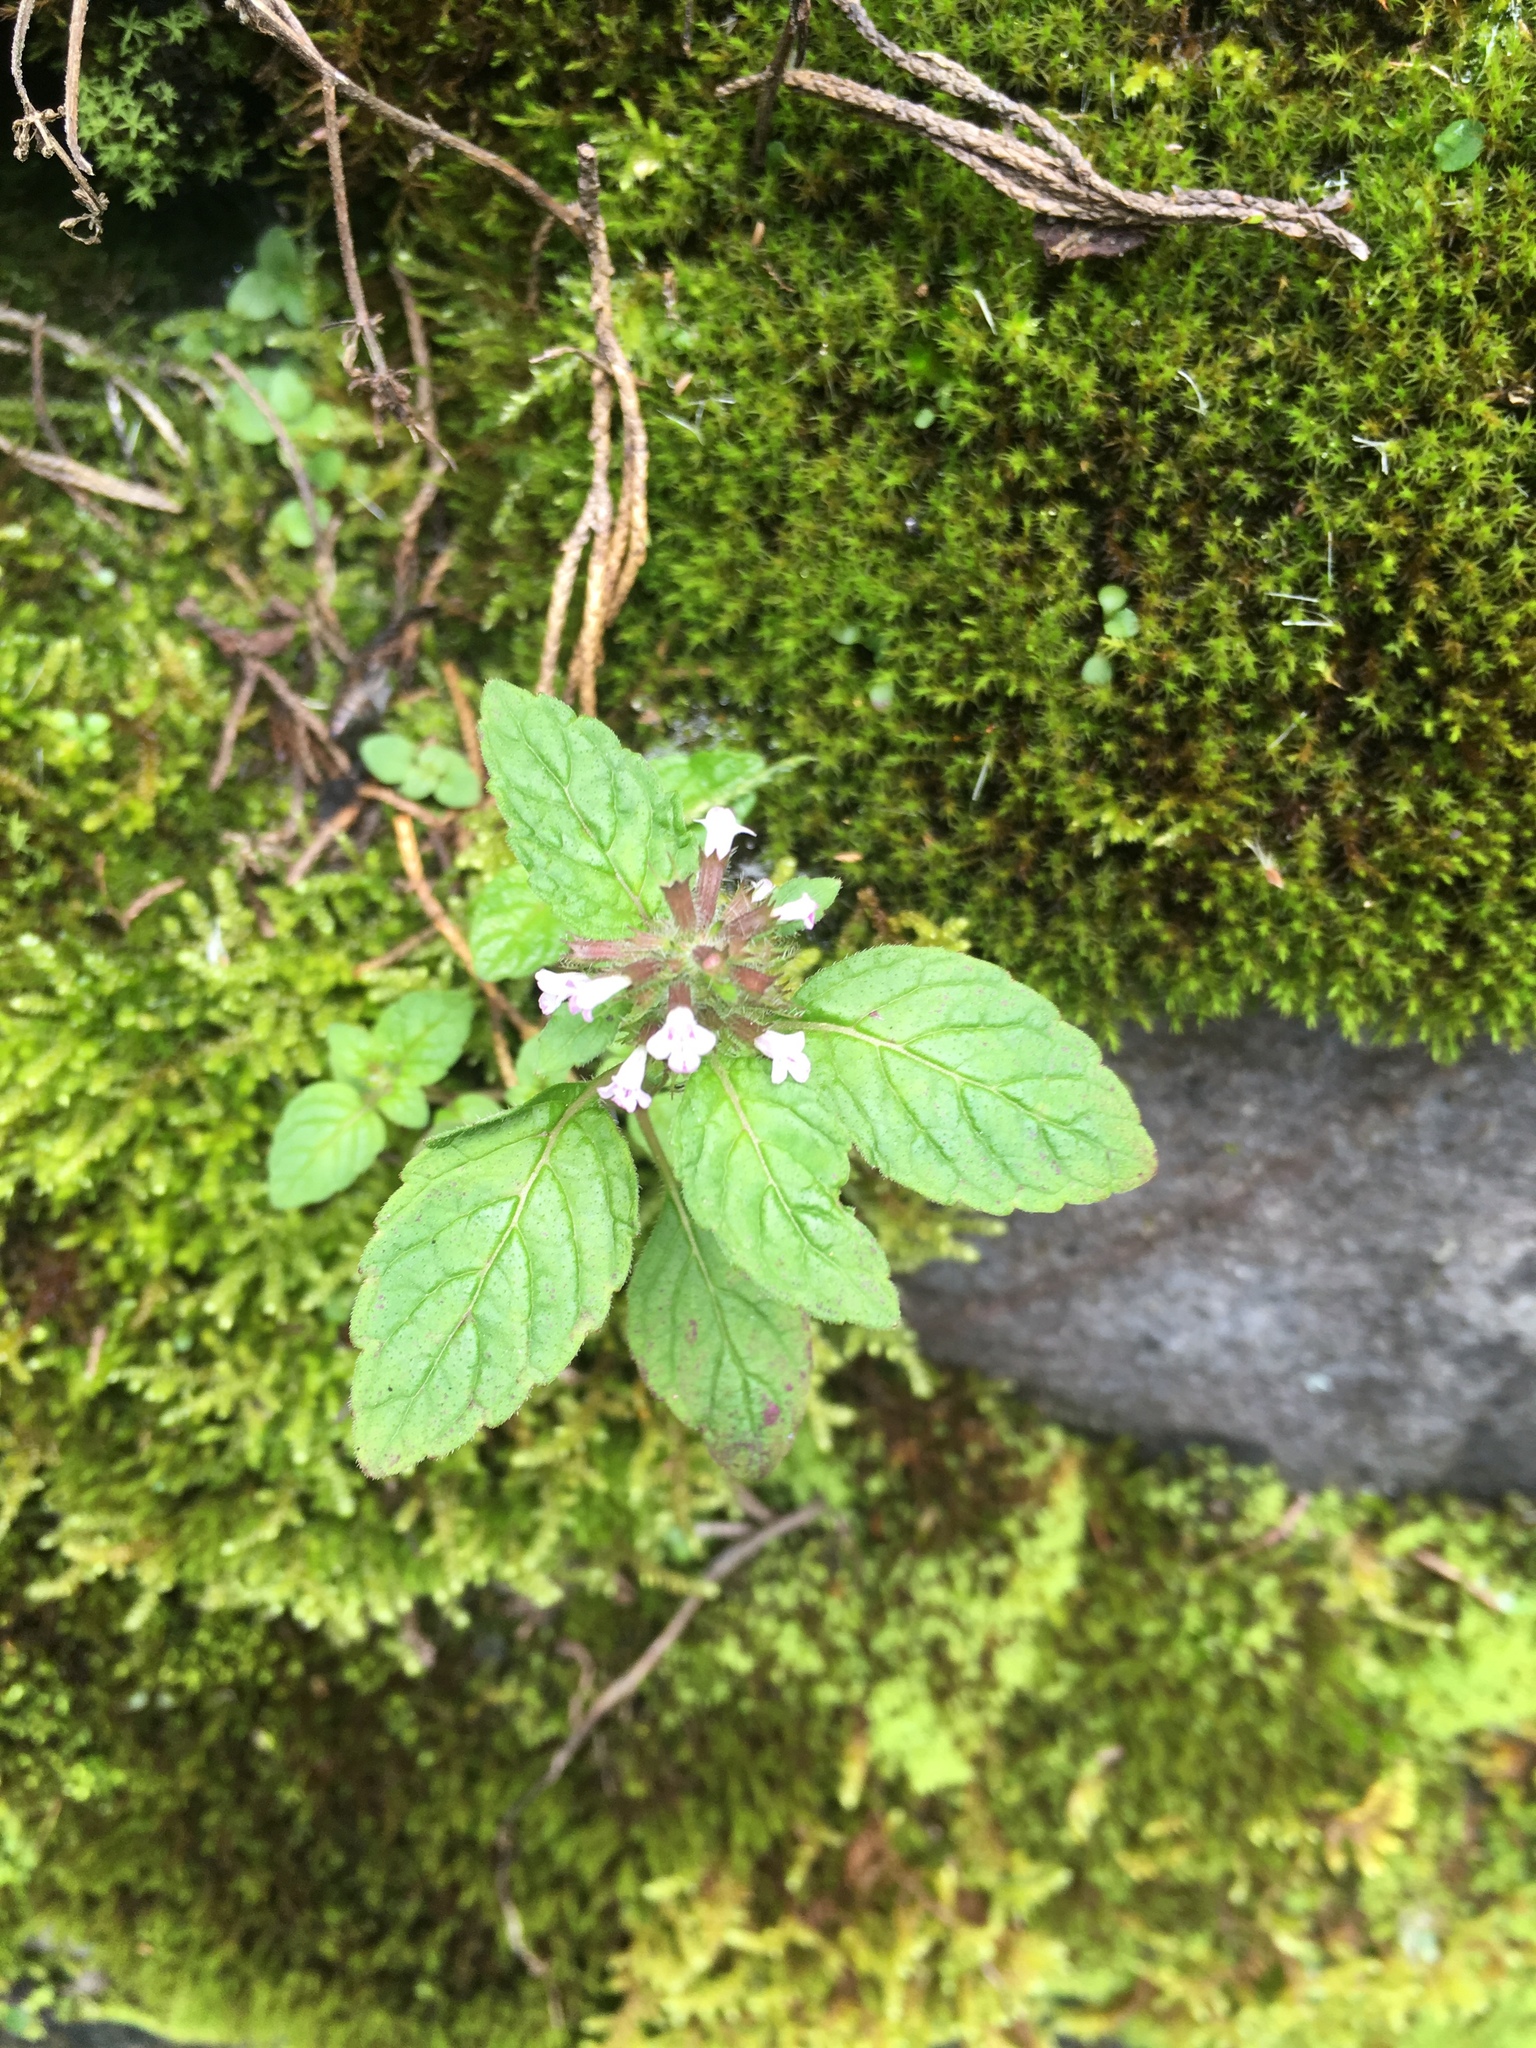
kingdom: Plantae
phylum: Tracheophyta
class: Magnoliopsida
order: Lamiales
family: Lamiaceae
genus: Clinopodium
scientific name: Clinopodium chinense
